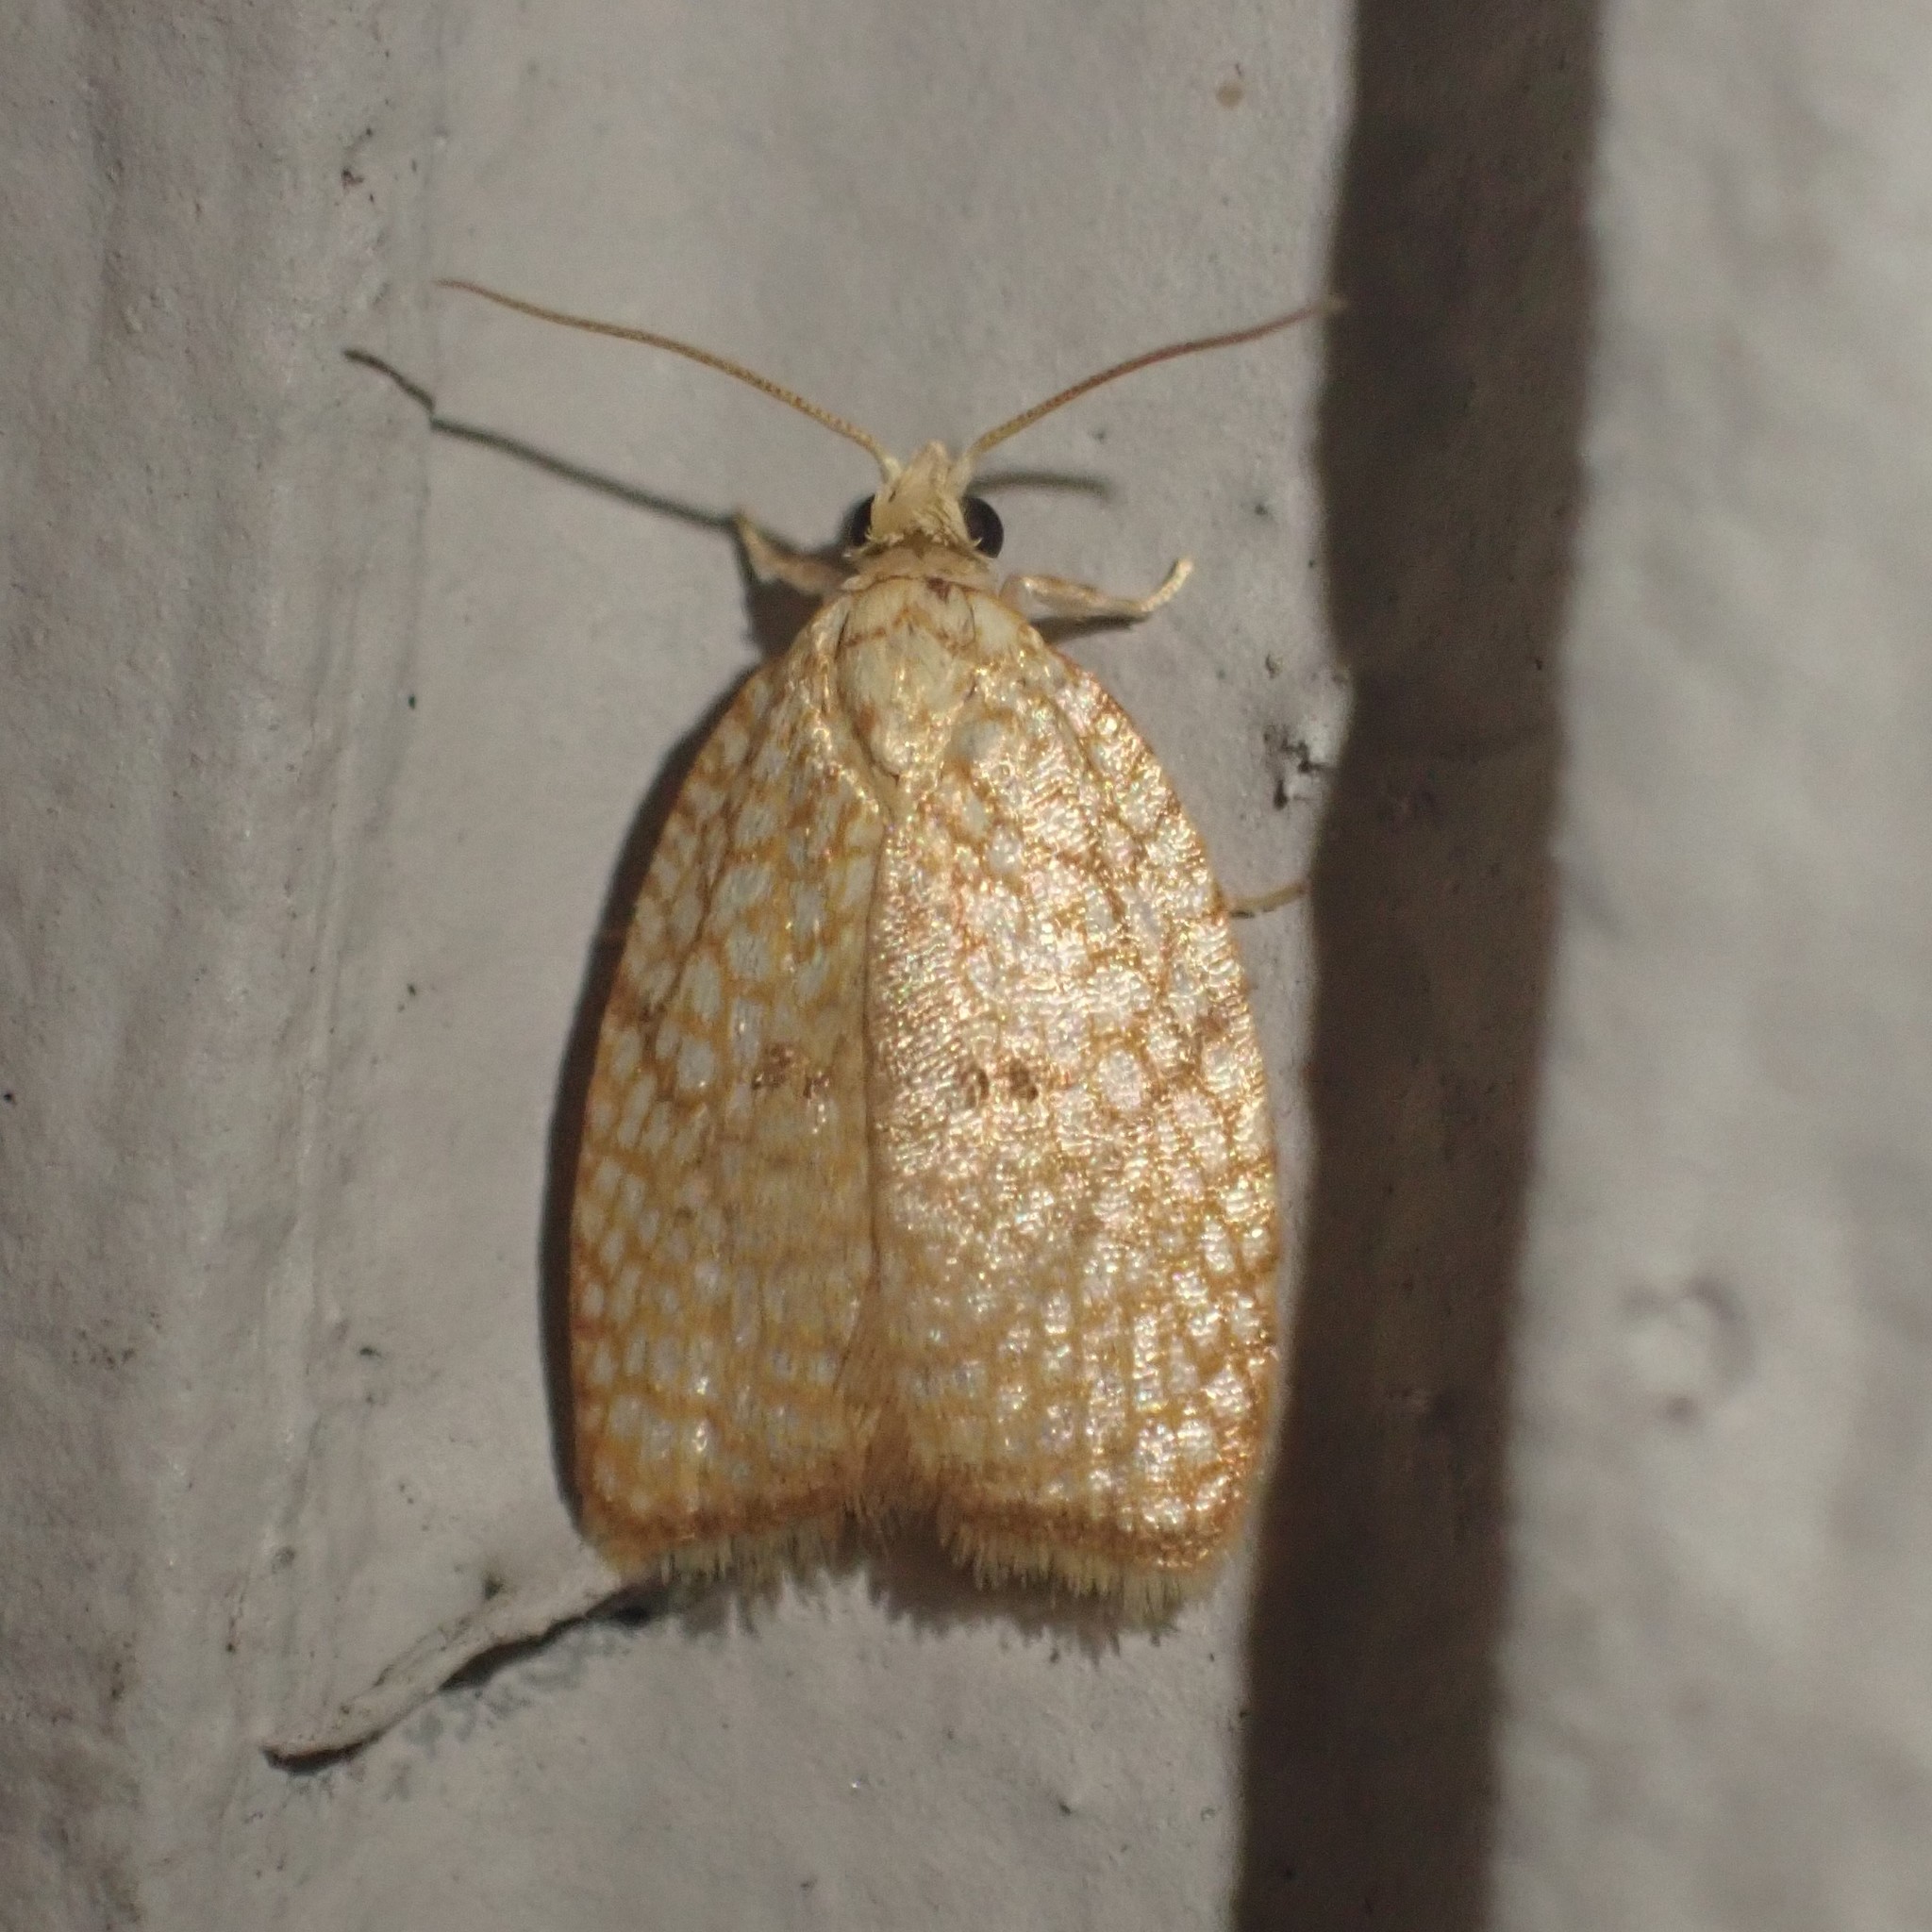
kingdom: Animalia
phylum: Arthropoda
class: Insecta
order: Lepidoptera
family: Tortricidae
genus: Acleris
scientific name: Acleris forsskaleana
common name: Maple button
